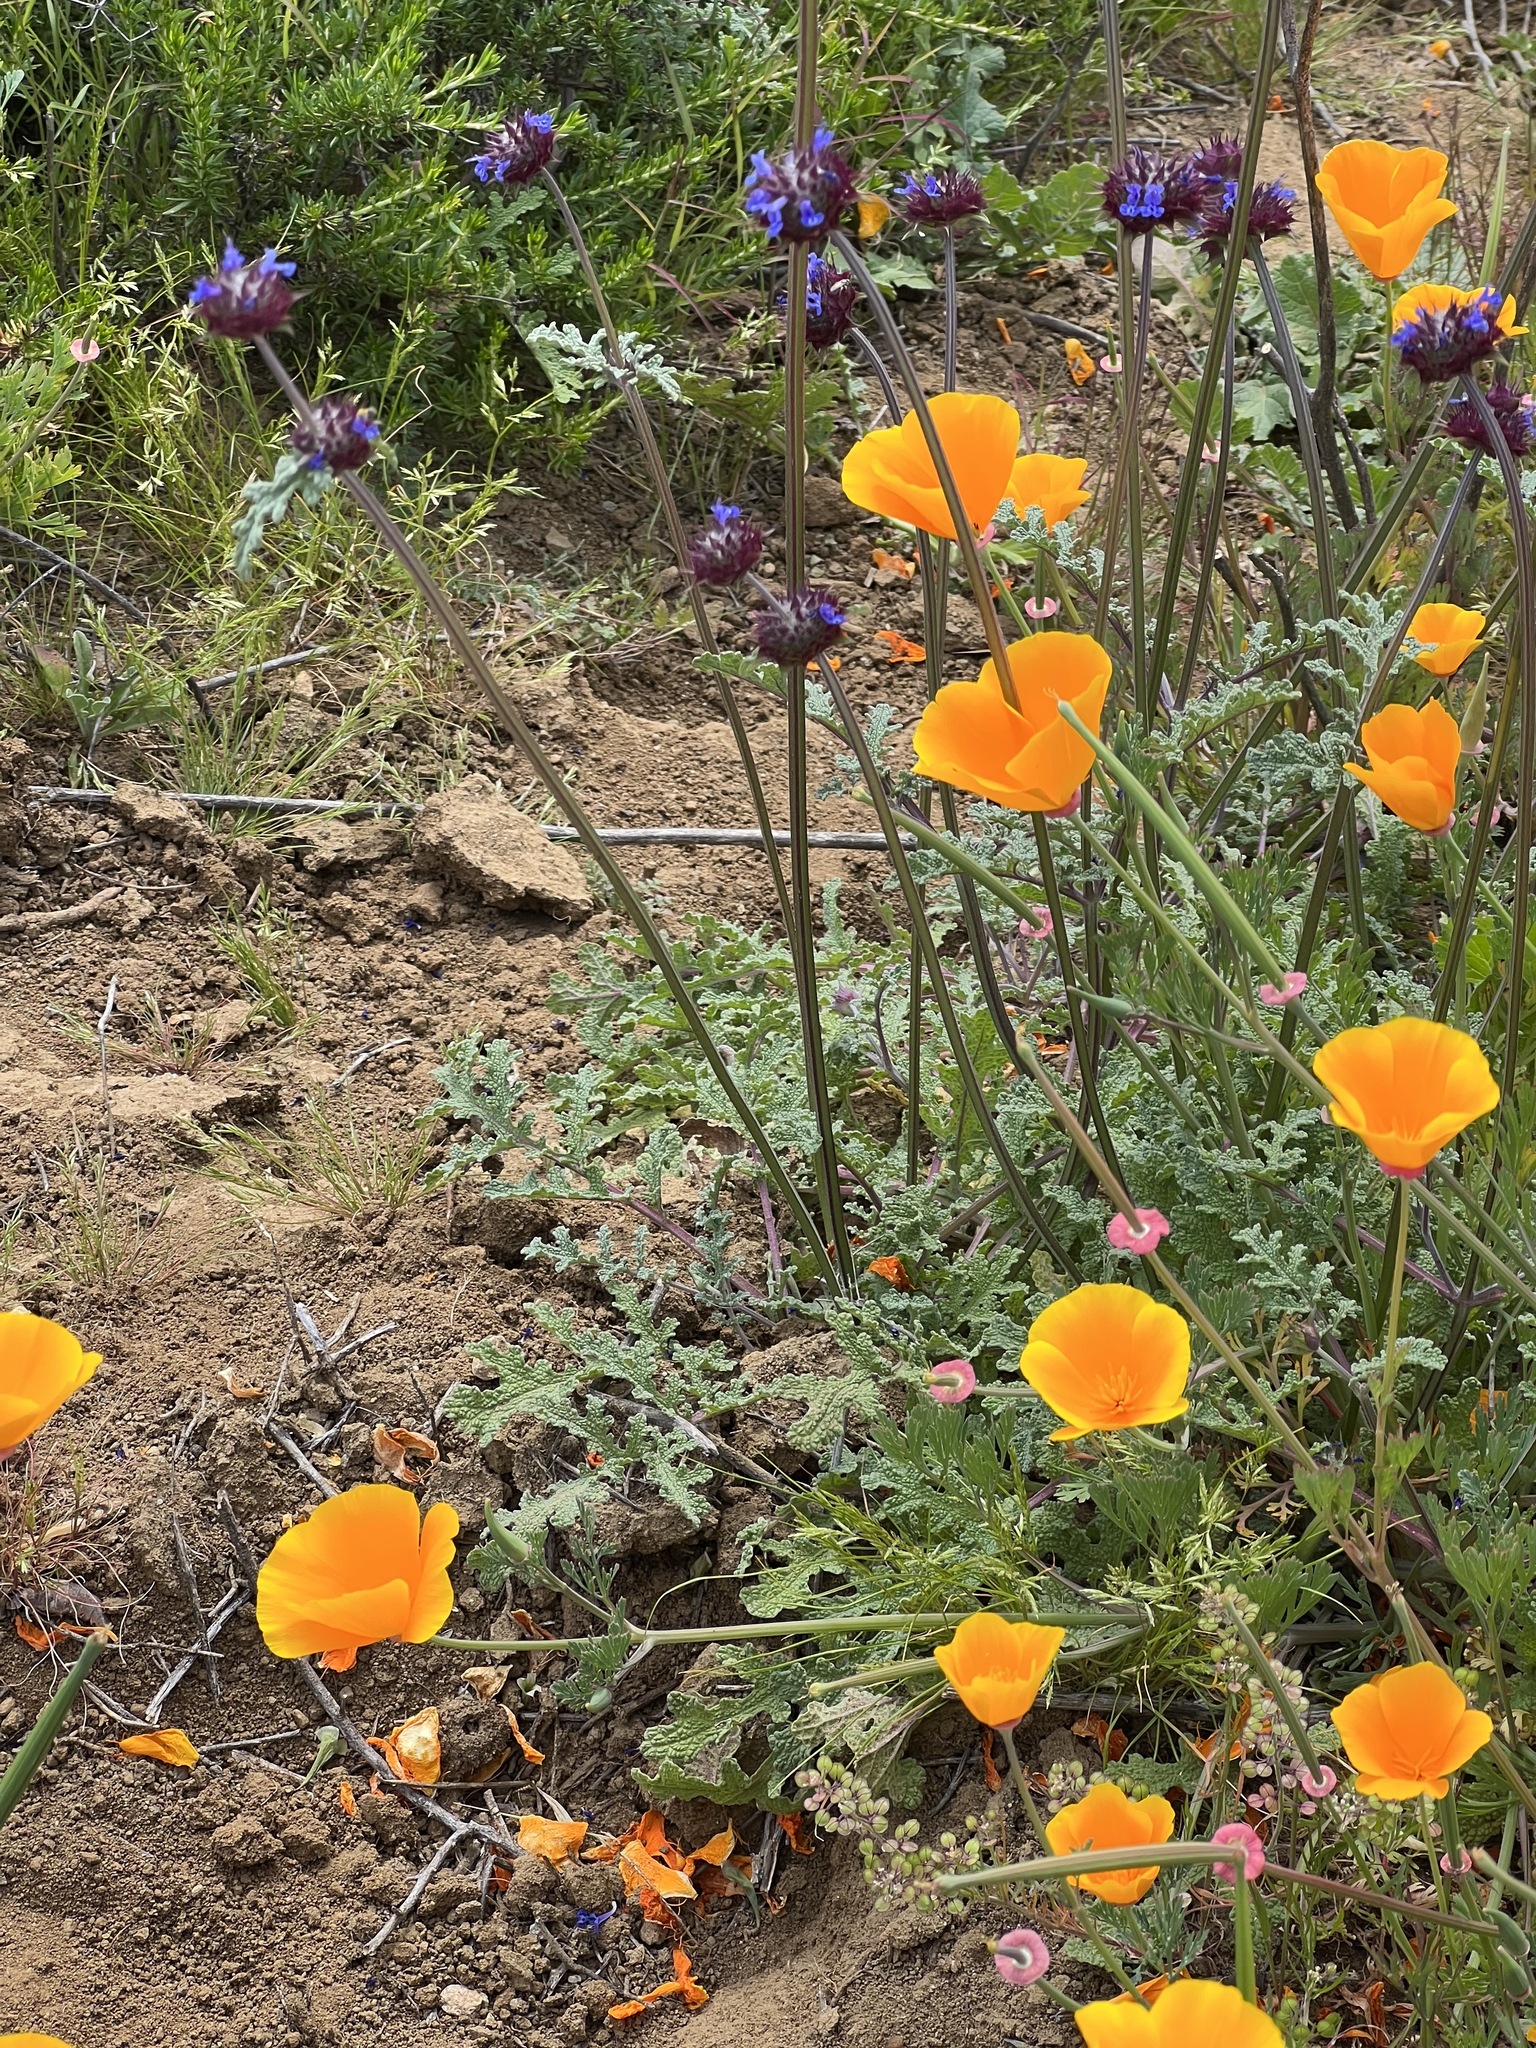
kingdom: Plantae
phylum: Tracheophyta
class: Magnoliopsida
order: Lamiales
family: Lamiaceae
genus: Salvia
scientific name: Salvia columbariae
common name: Chia
